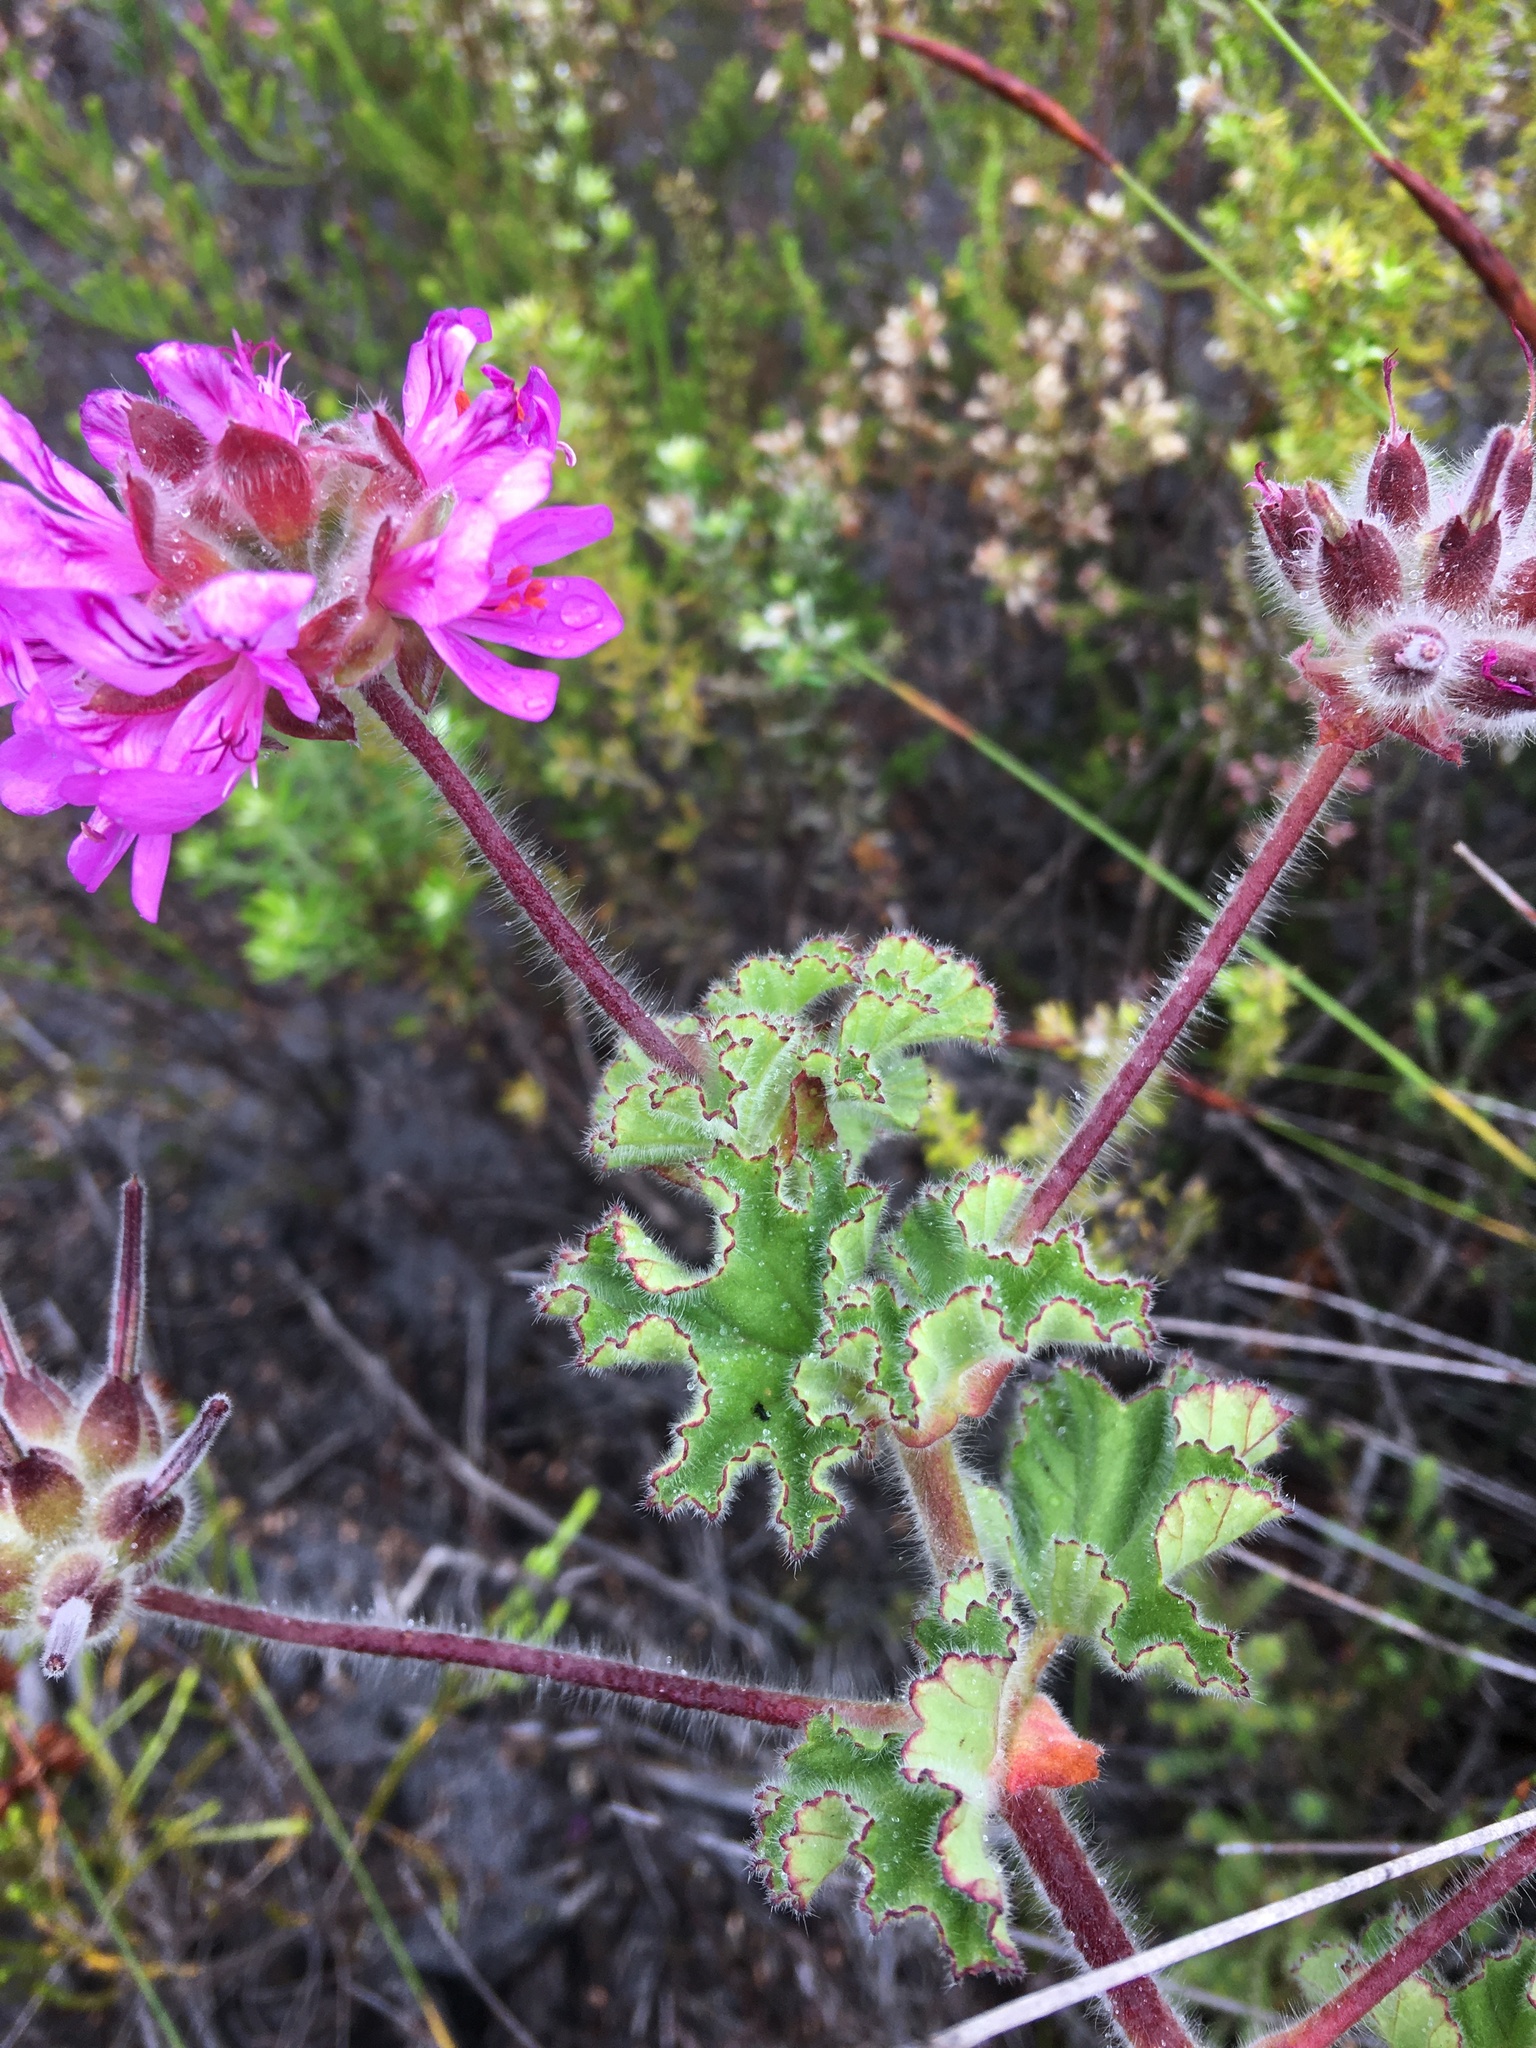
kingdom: Plantae
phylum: Tracheophyta
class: Magnoliopsida
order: Geraniales
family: Geraniaceae
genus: Pelargonium
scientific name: Pelargonium capitatum
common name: Rose scented geranium
